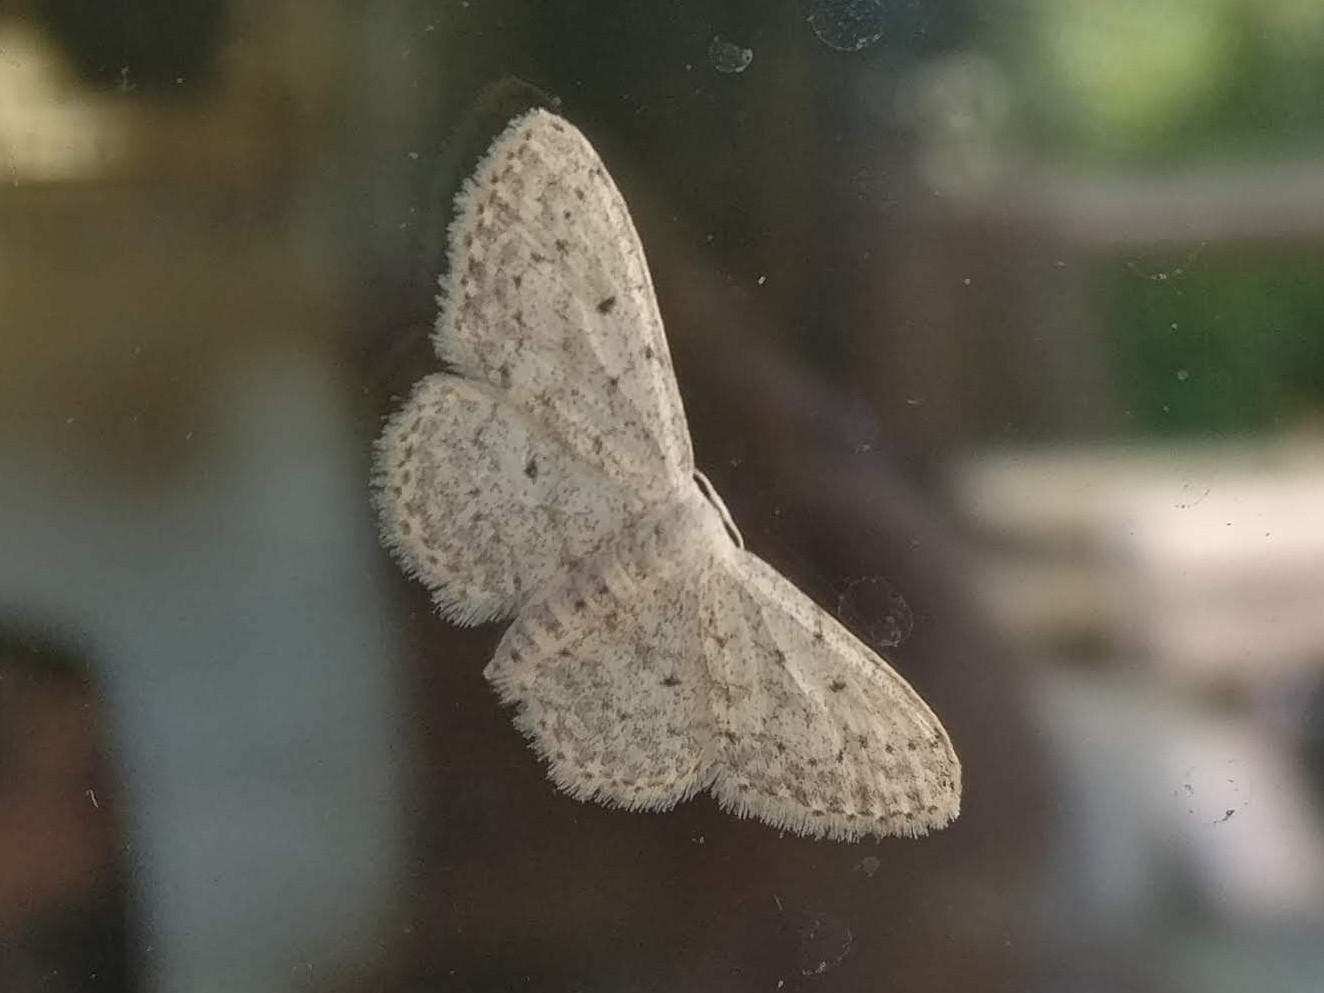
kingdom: Animalia
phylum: Arthropoda
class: Insecta
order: Lepidoptera
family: Geometridae
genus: Idaea
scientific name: Idaea seriata
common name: Small dusty wave
